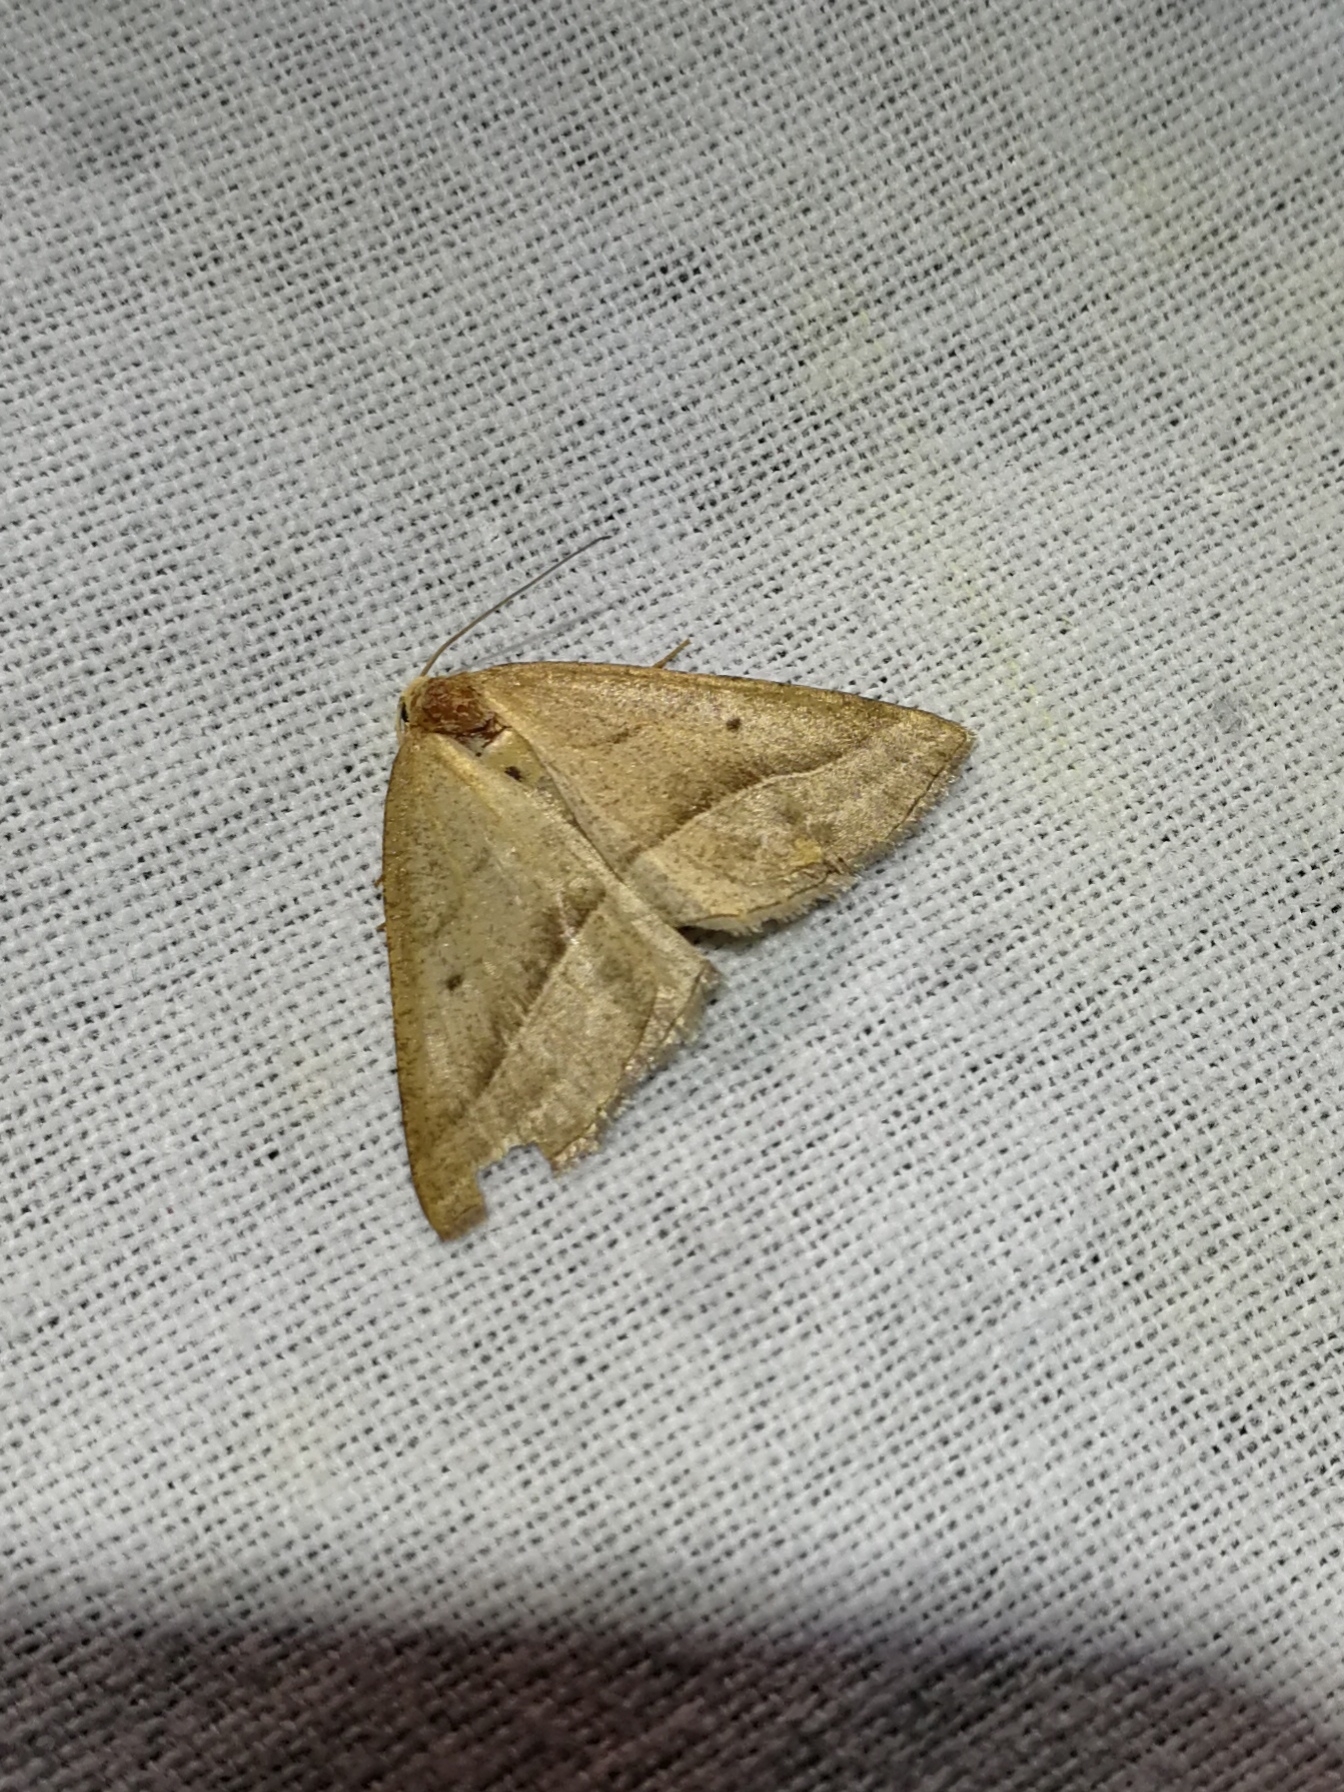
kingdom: Animalia
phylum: Arthropoda
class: Insecta
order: Lepidoptera
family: Pterophoridae
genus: Pterophorus
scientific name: Pterophorus Petrophora chlorosata
